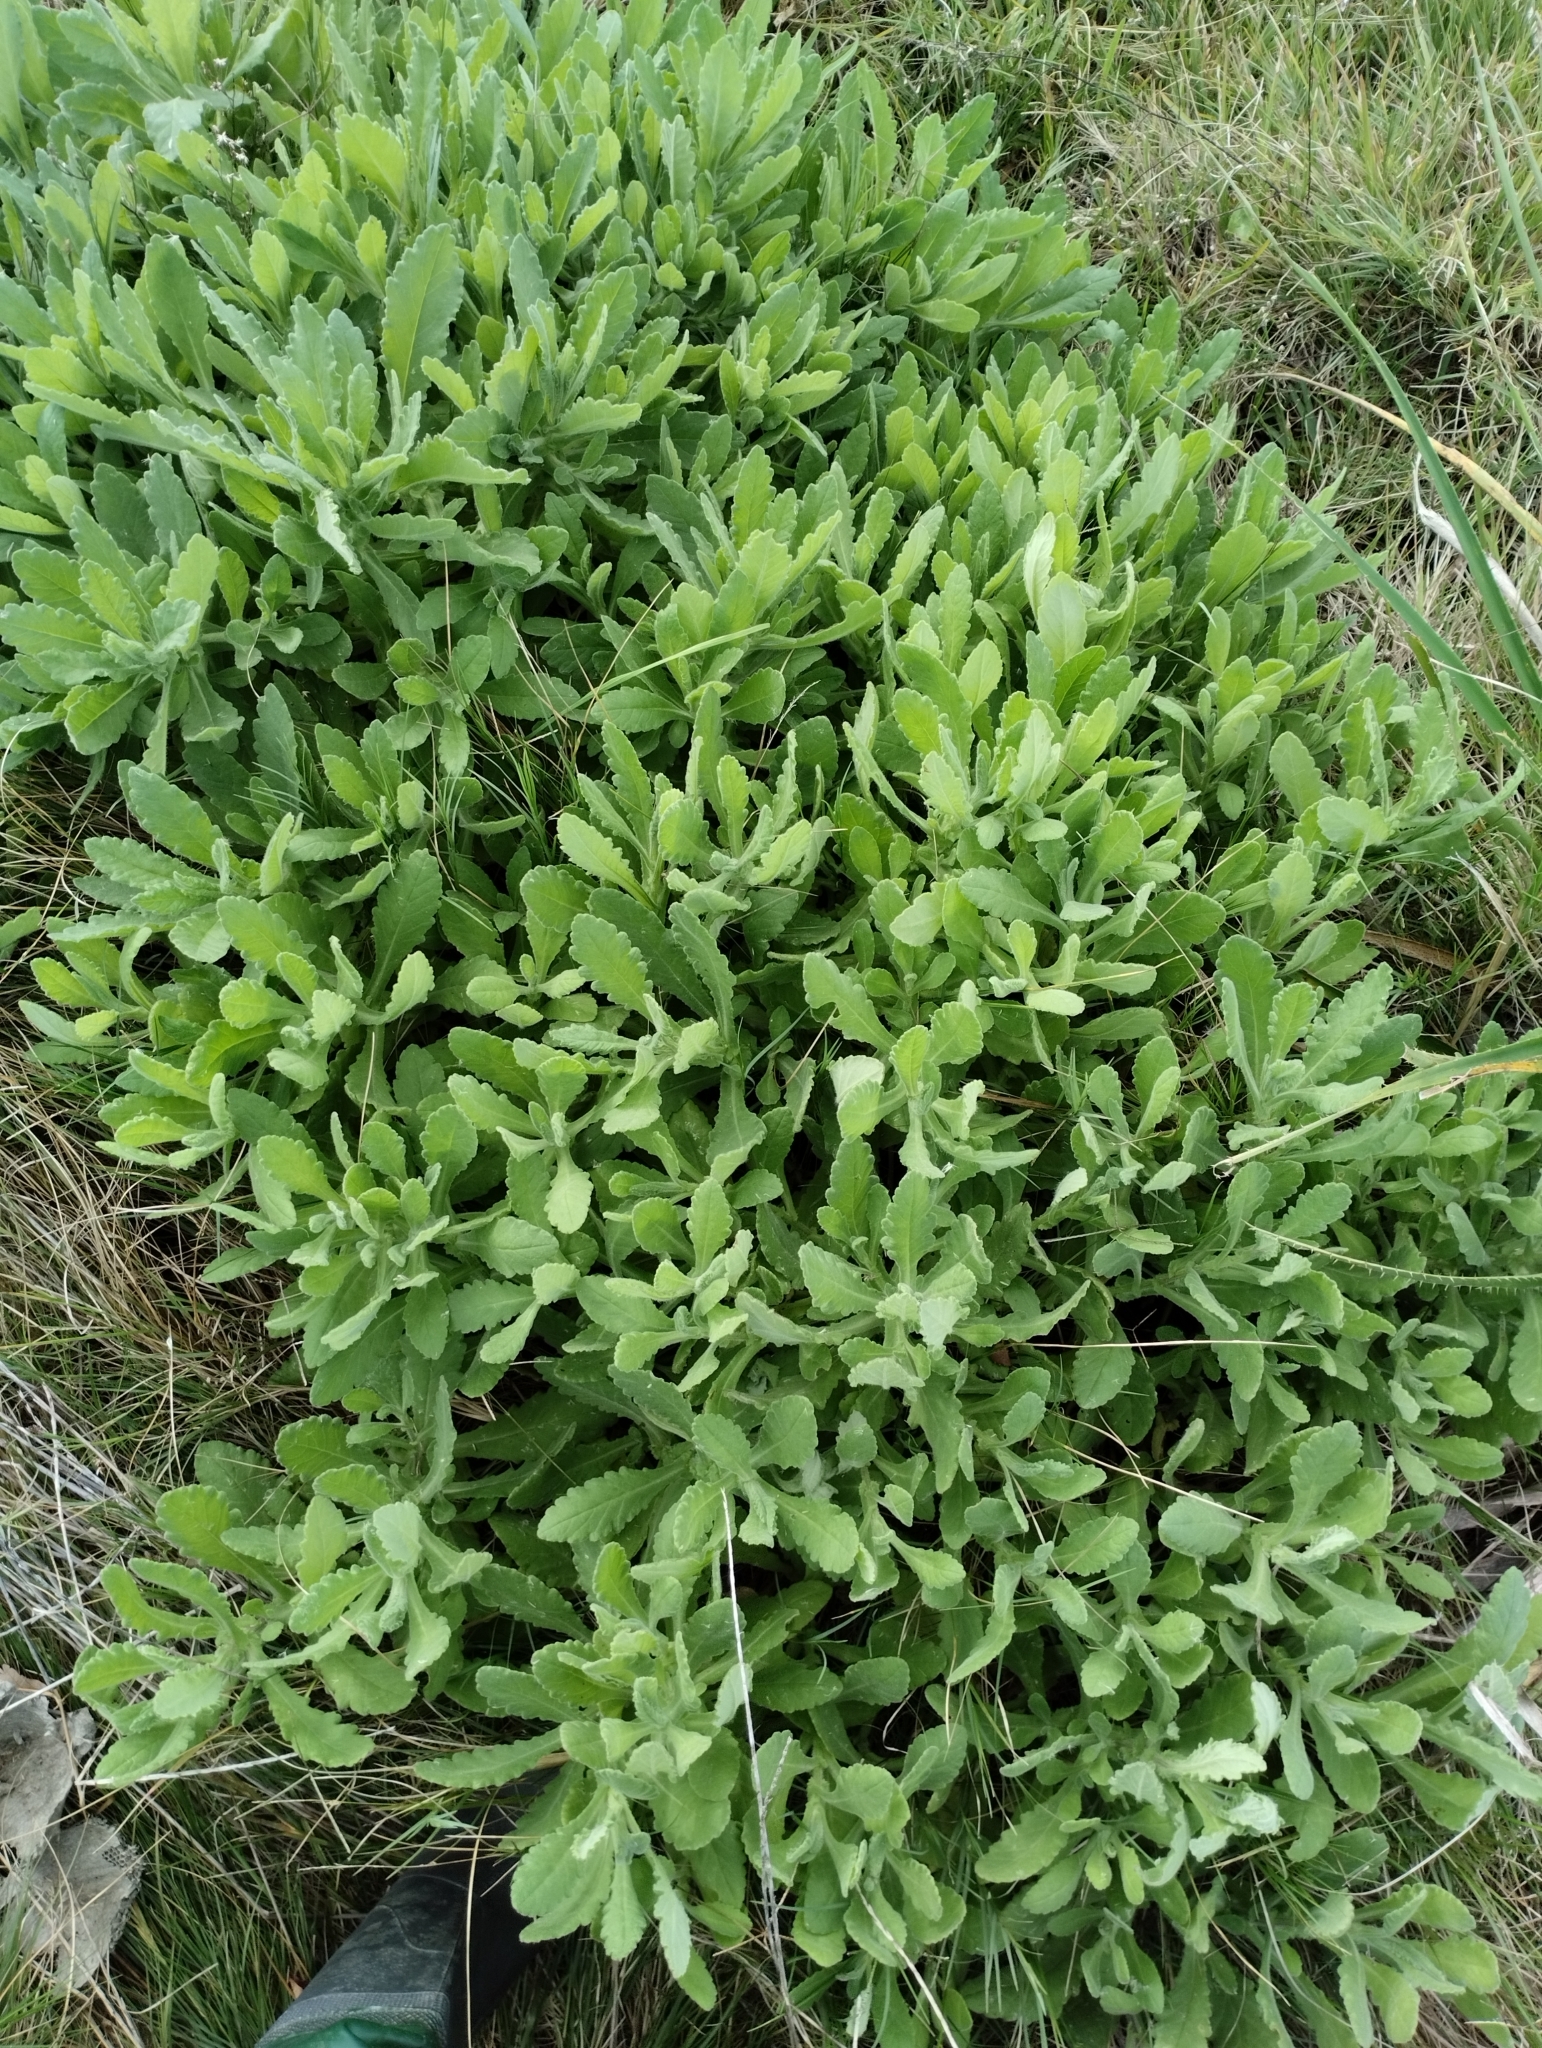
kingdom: Plantae
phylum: Tracheophyta
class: Magnoliopsida
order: Asterales
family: Asteraceae
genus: Senecio
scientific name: Senecio selloi
